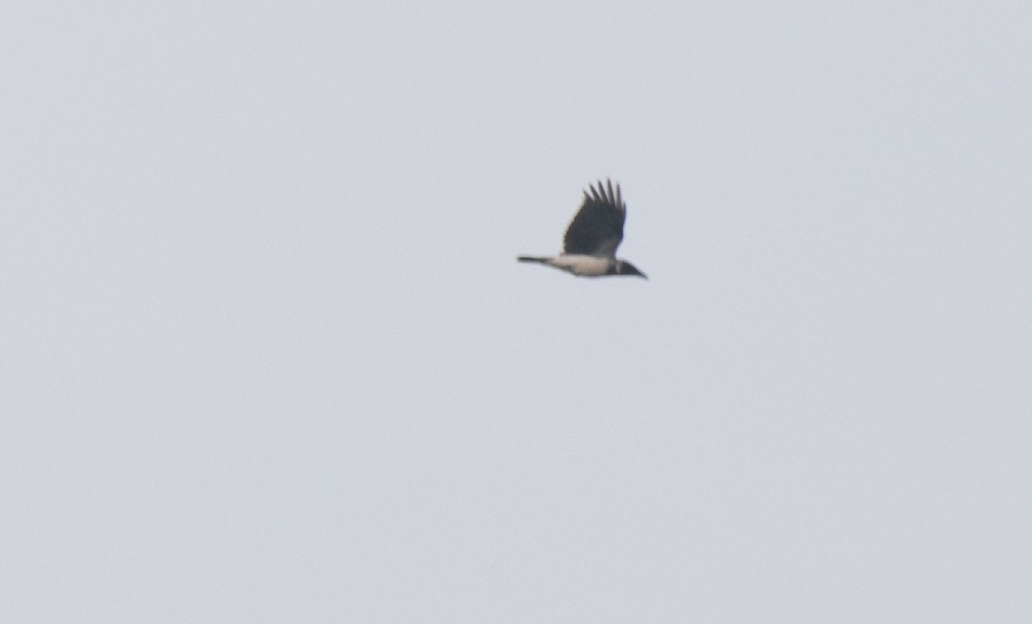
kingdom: Animalia
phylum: Chordata
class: Aves
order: Passeriformes
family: Corvidae
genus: Corvus
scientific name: Corvus cornix
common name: Hooded crow
